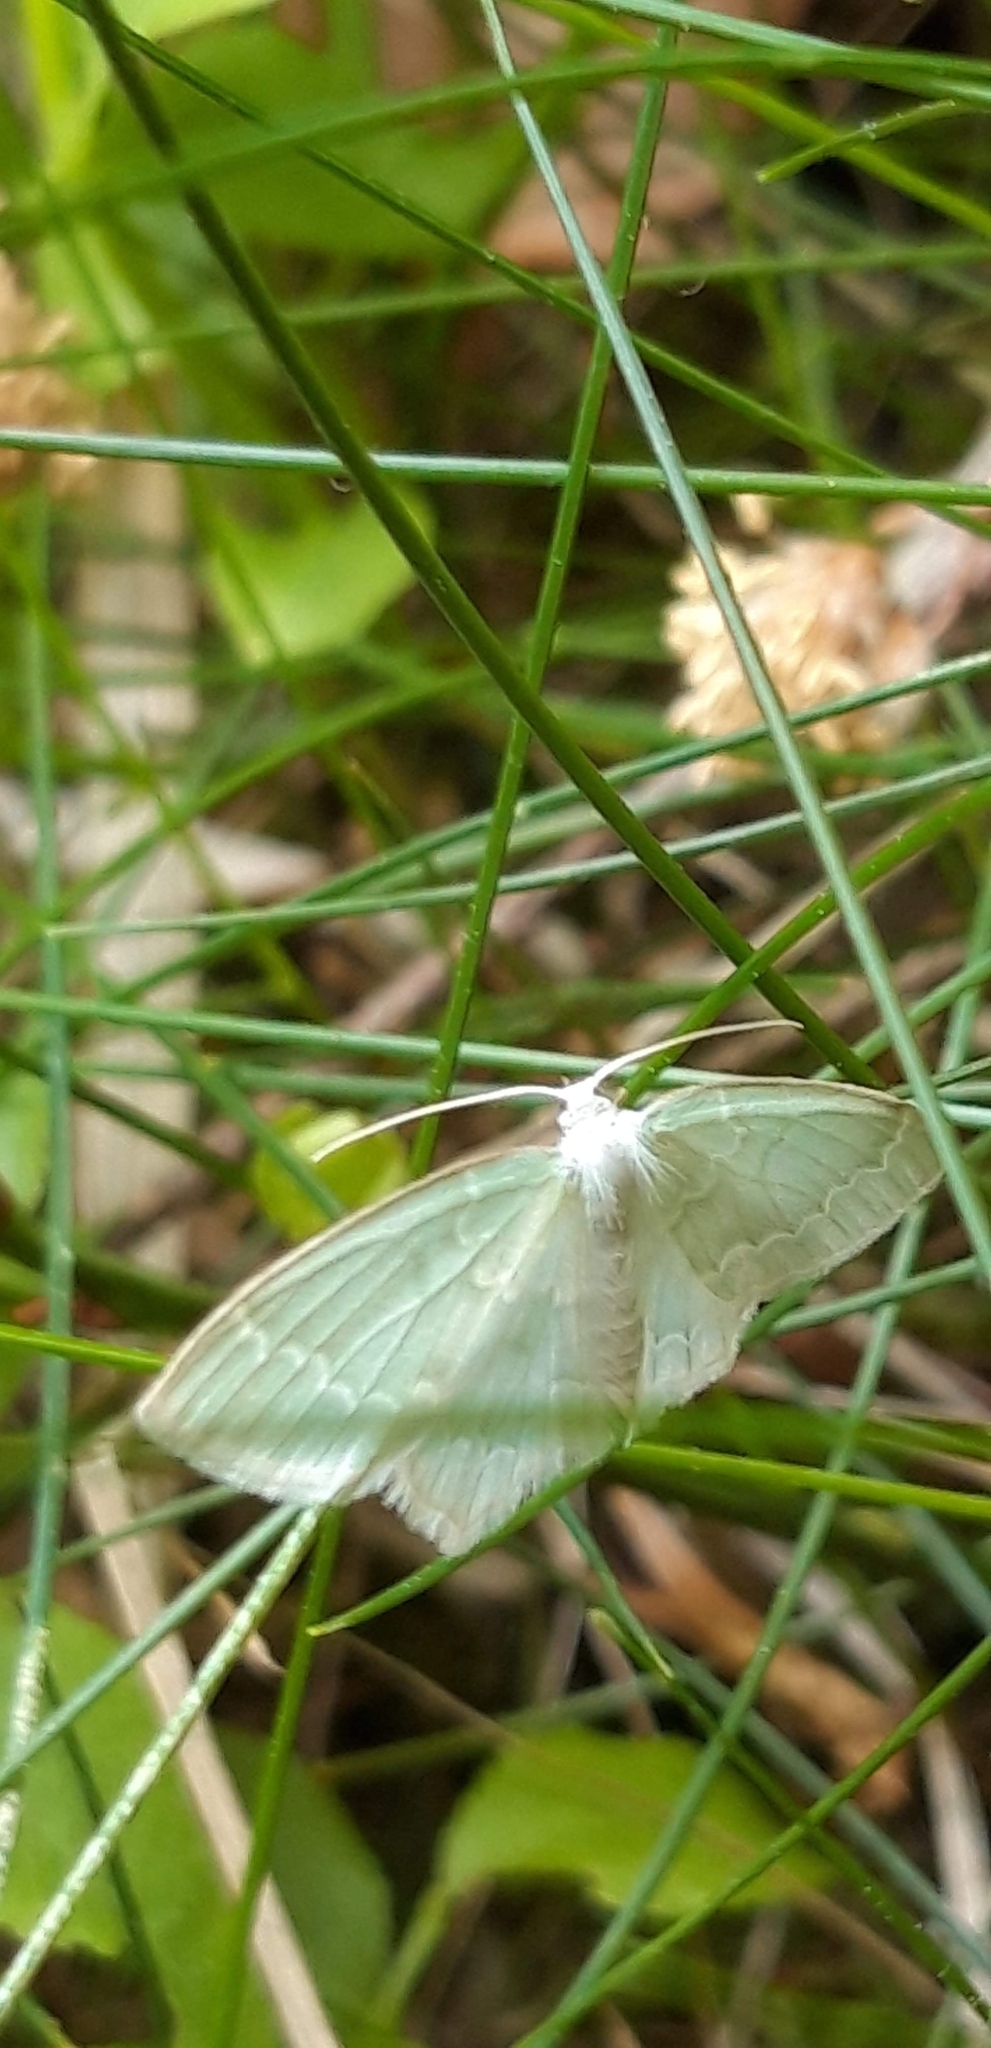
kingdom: Animalia
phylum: Arthropoda
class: Insecta
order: Lepidoptera
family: Geometridae
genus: Jodis
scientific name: Jodis putata
